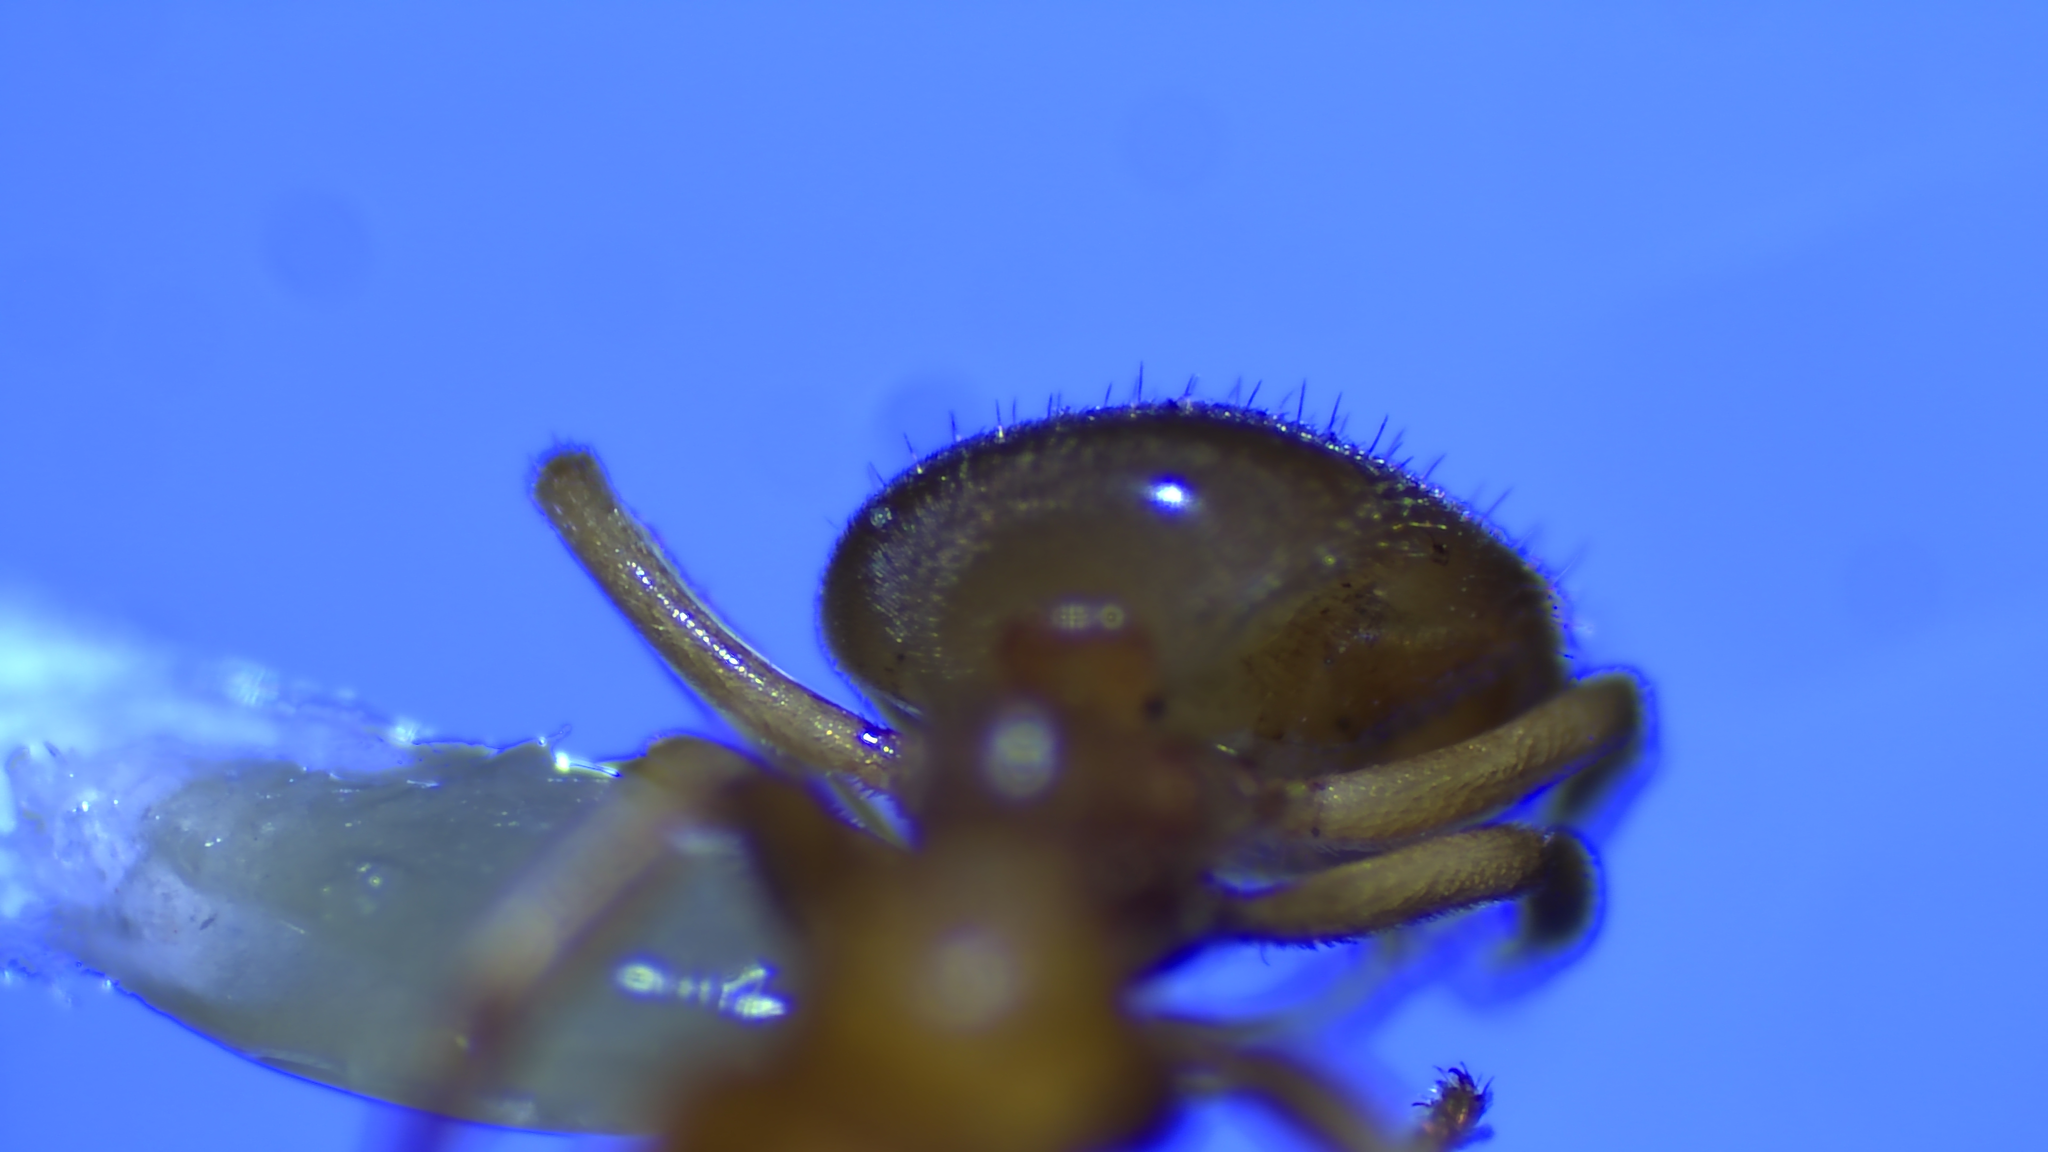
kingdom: Animalia
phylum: Arthropoda
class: Insecta
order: Hymenoptera
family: Formicidae
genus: Lasius
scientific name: Lasius
